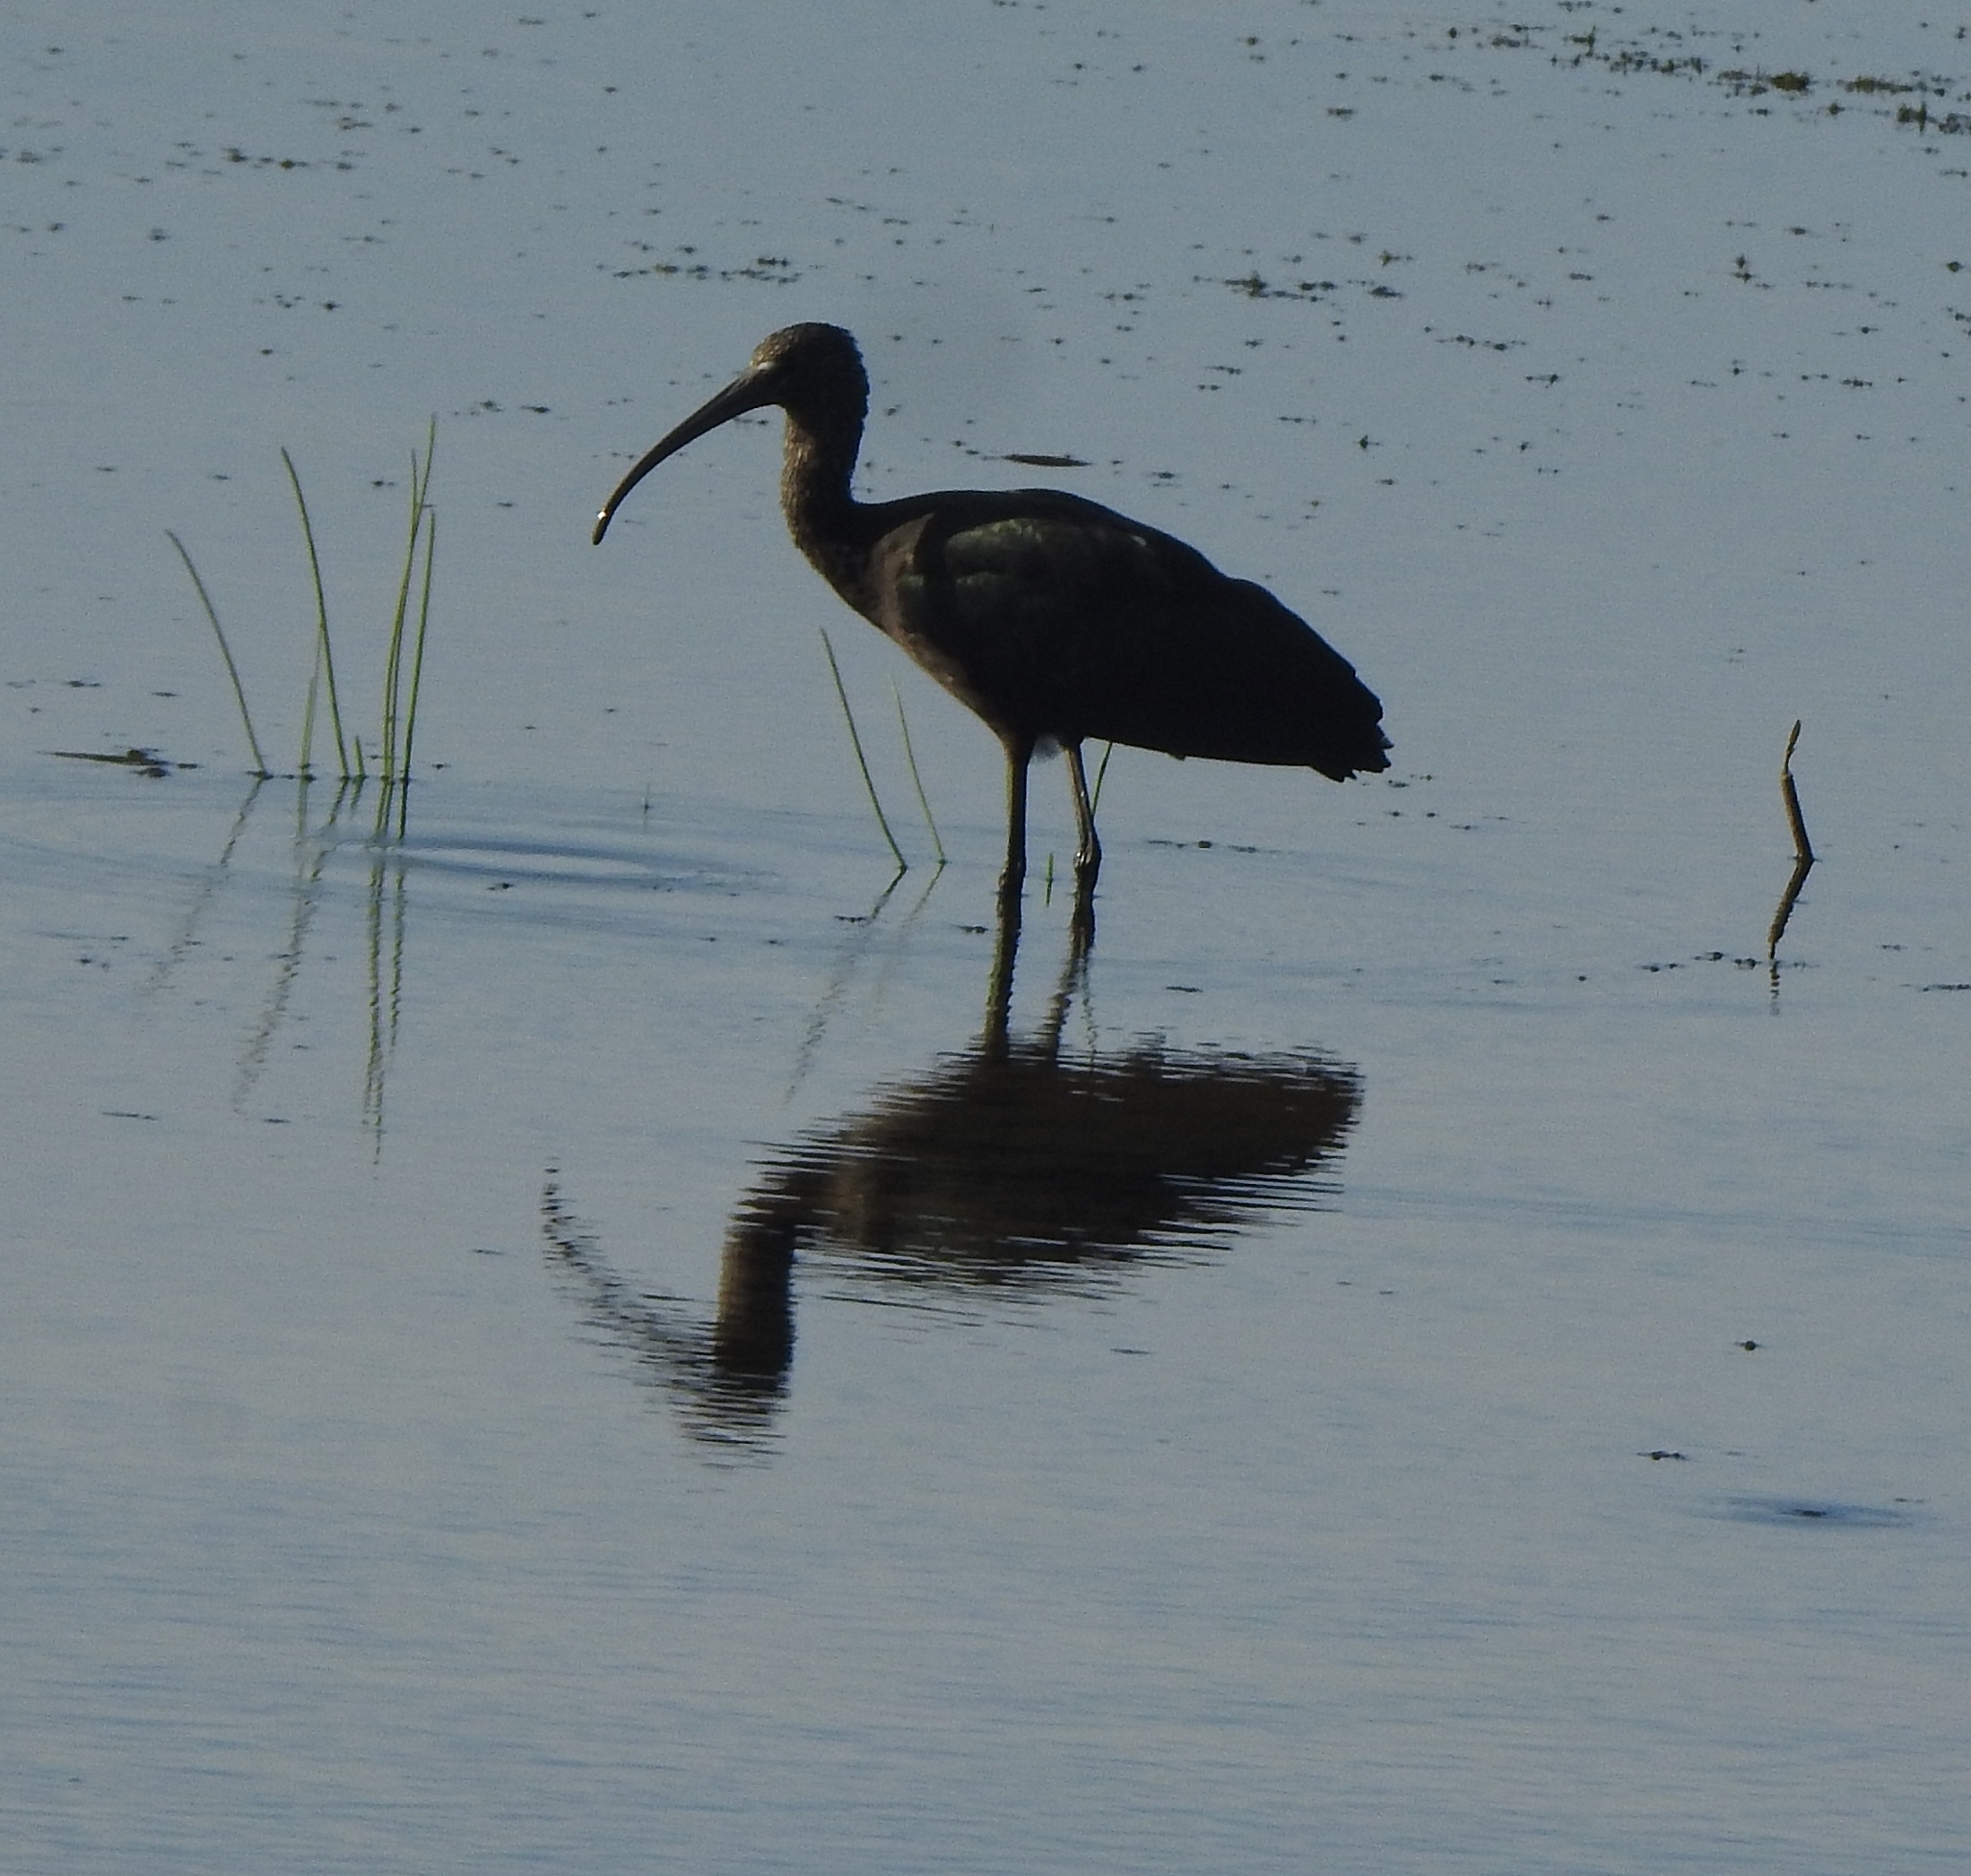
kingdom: Animalia
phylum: Chordata
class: Aves
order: Pelecaniformes
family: Threskiornithidae
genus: Plegadis
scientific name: Plegadis falcinellus
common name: Glossy ibis
